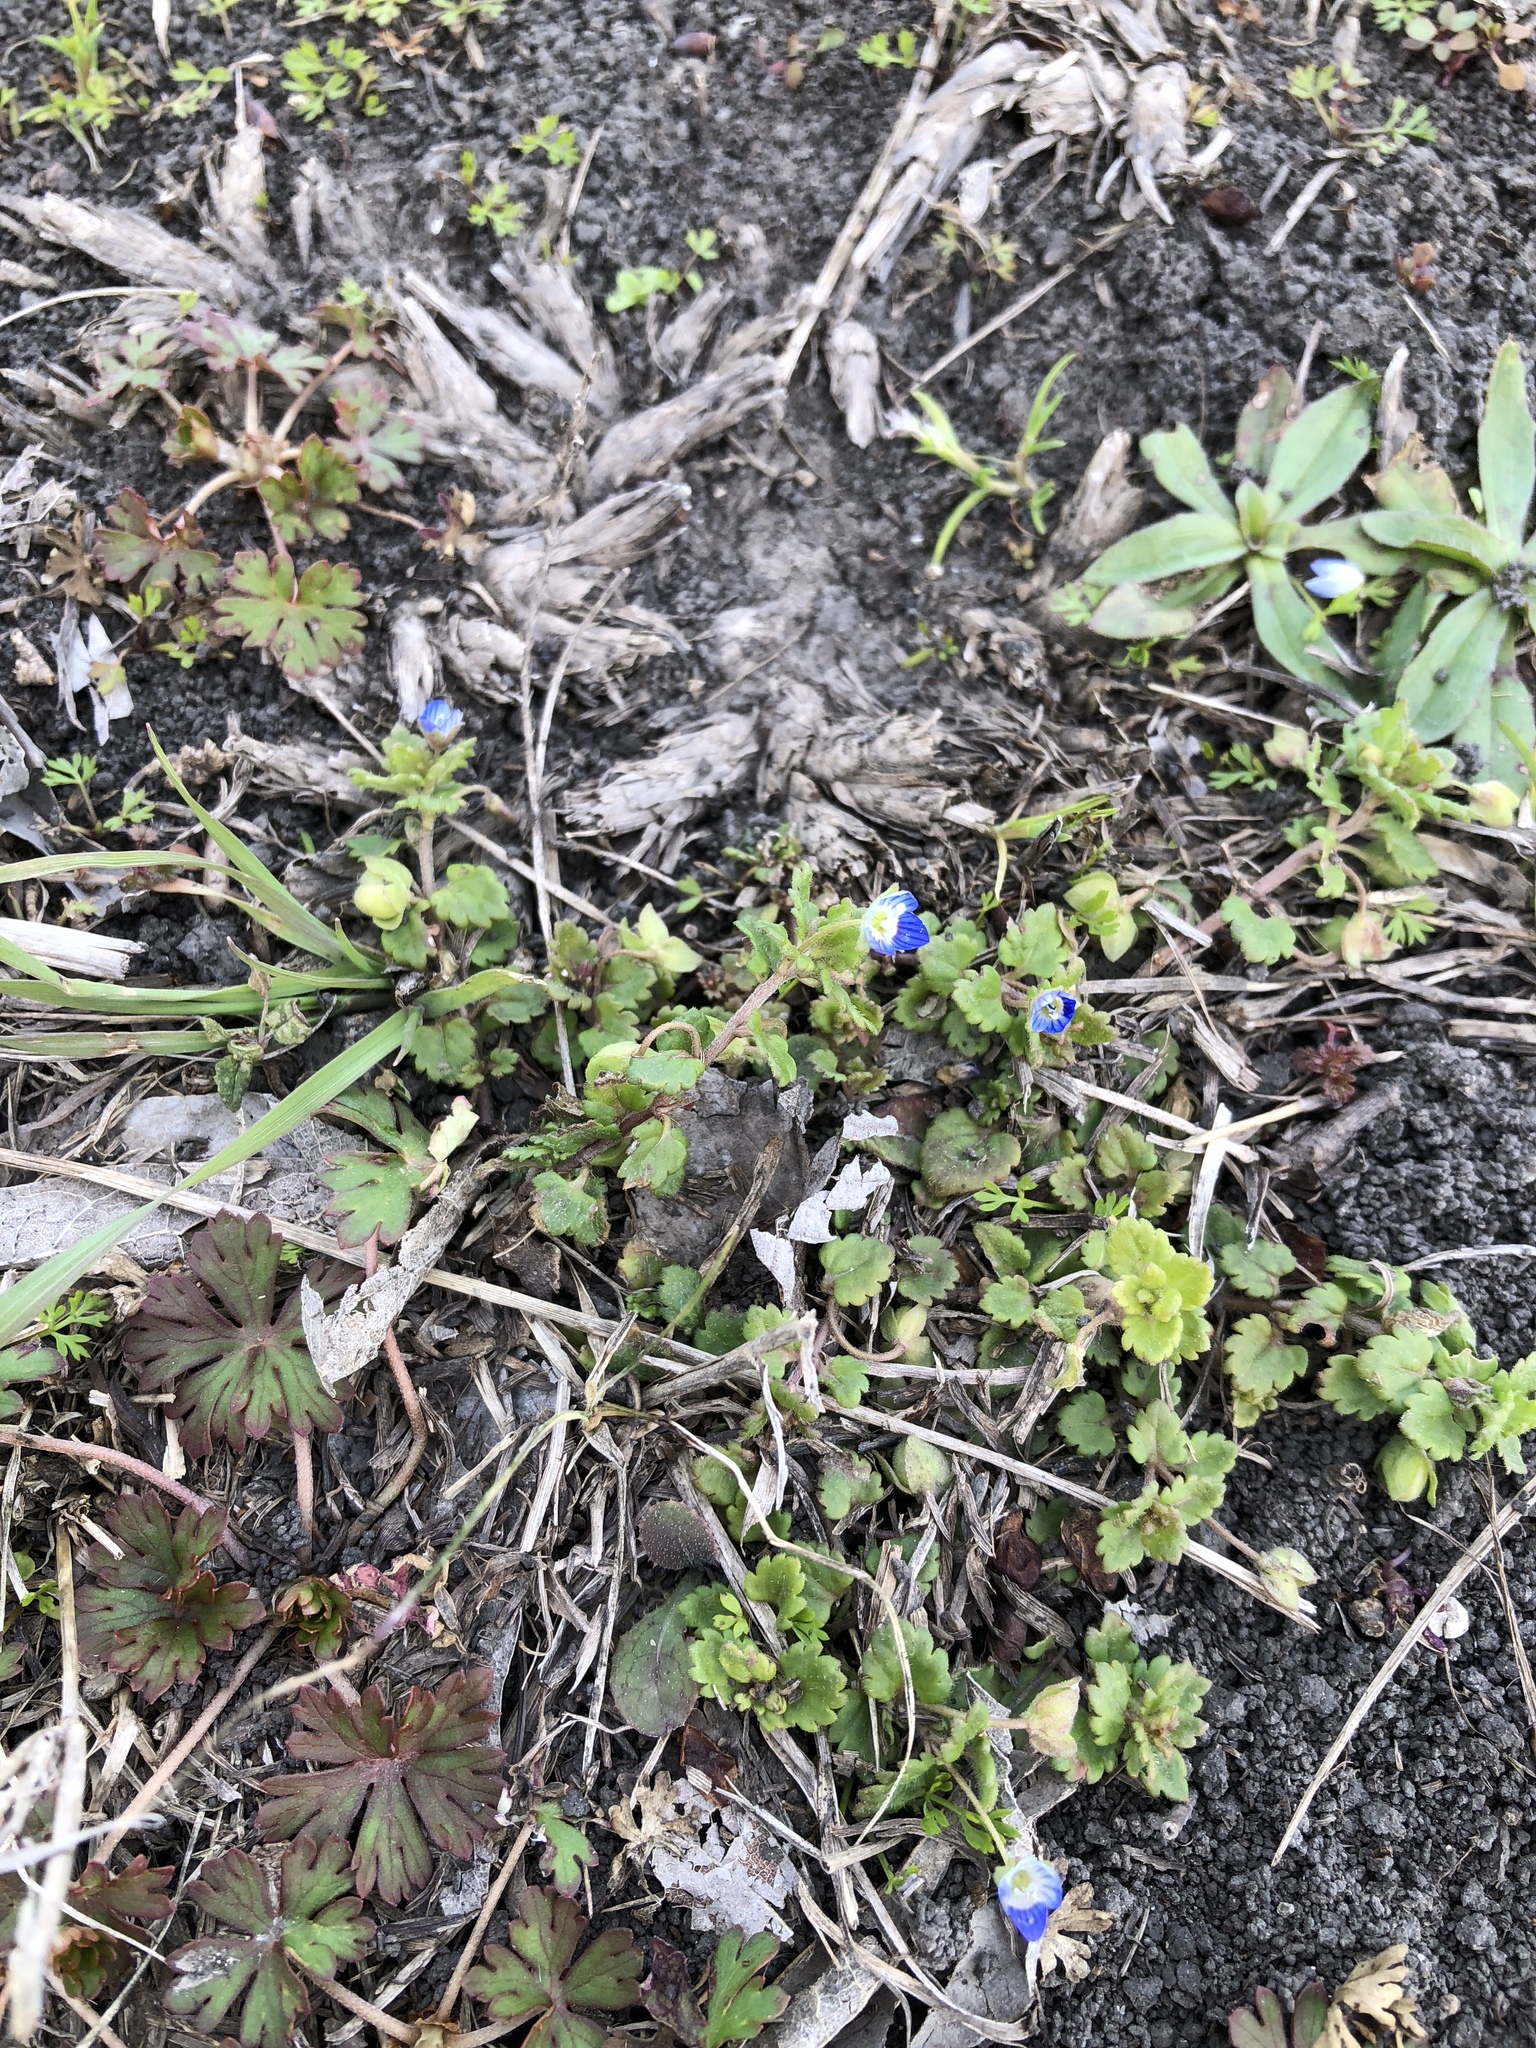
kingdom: Plantae
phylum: Tracheophyta
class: Magnoliopsida
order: Lamiales
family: Plantaginaceae
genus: Veronica
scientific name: Veronica polita
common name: Grey field-speedwell
